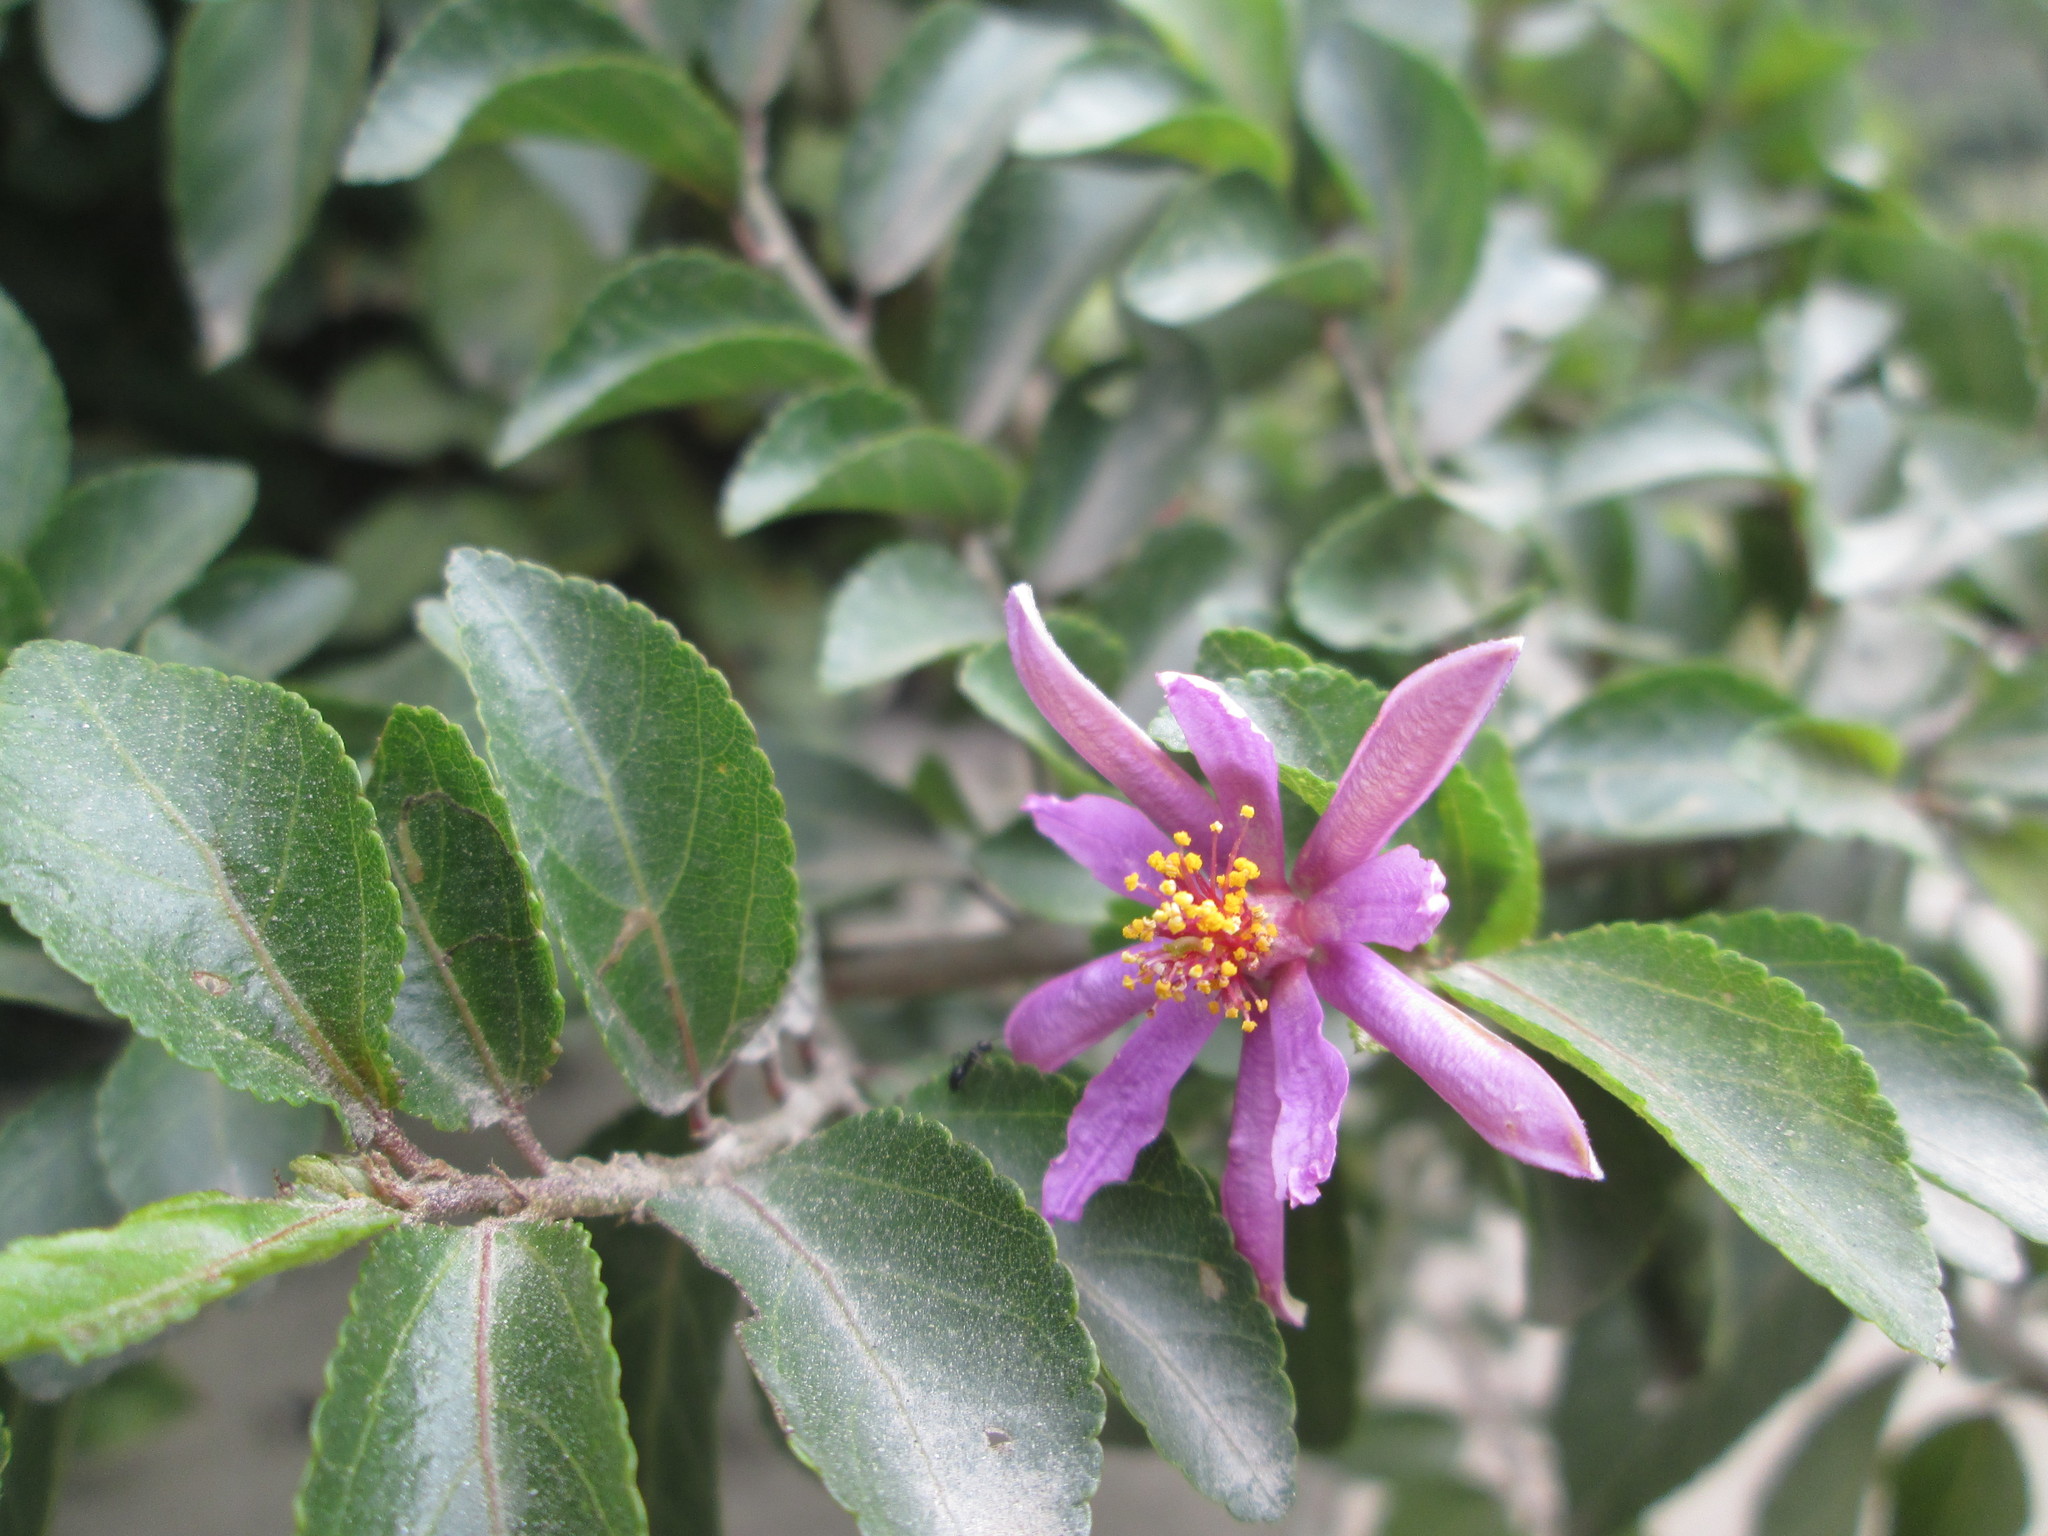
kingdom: Plantae
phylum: Tracheophyta
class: Magnoliopsida
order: Malvales
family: Malvaceae
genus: Grewia
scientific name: Grewia occidentalis
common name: Crossberry
